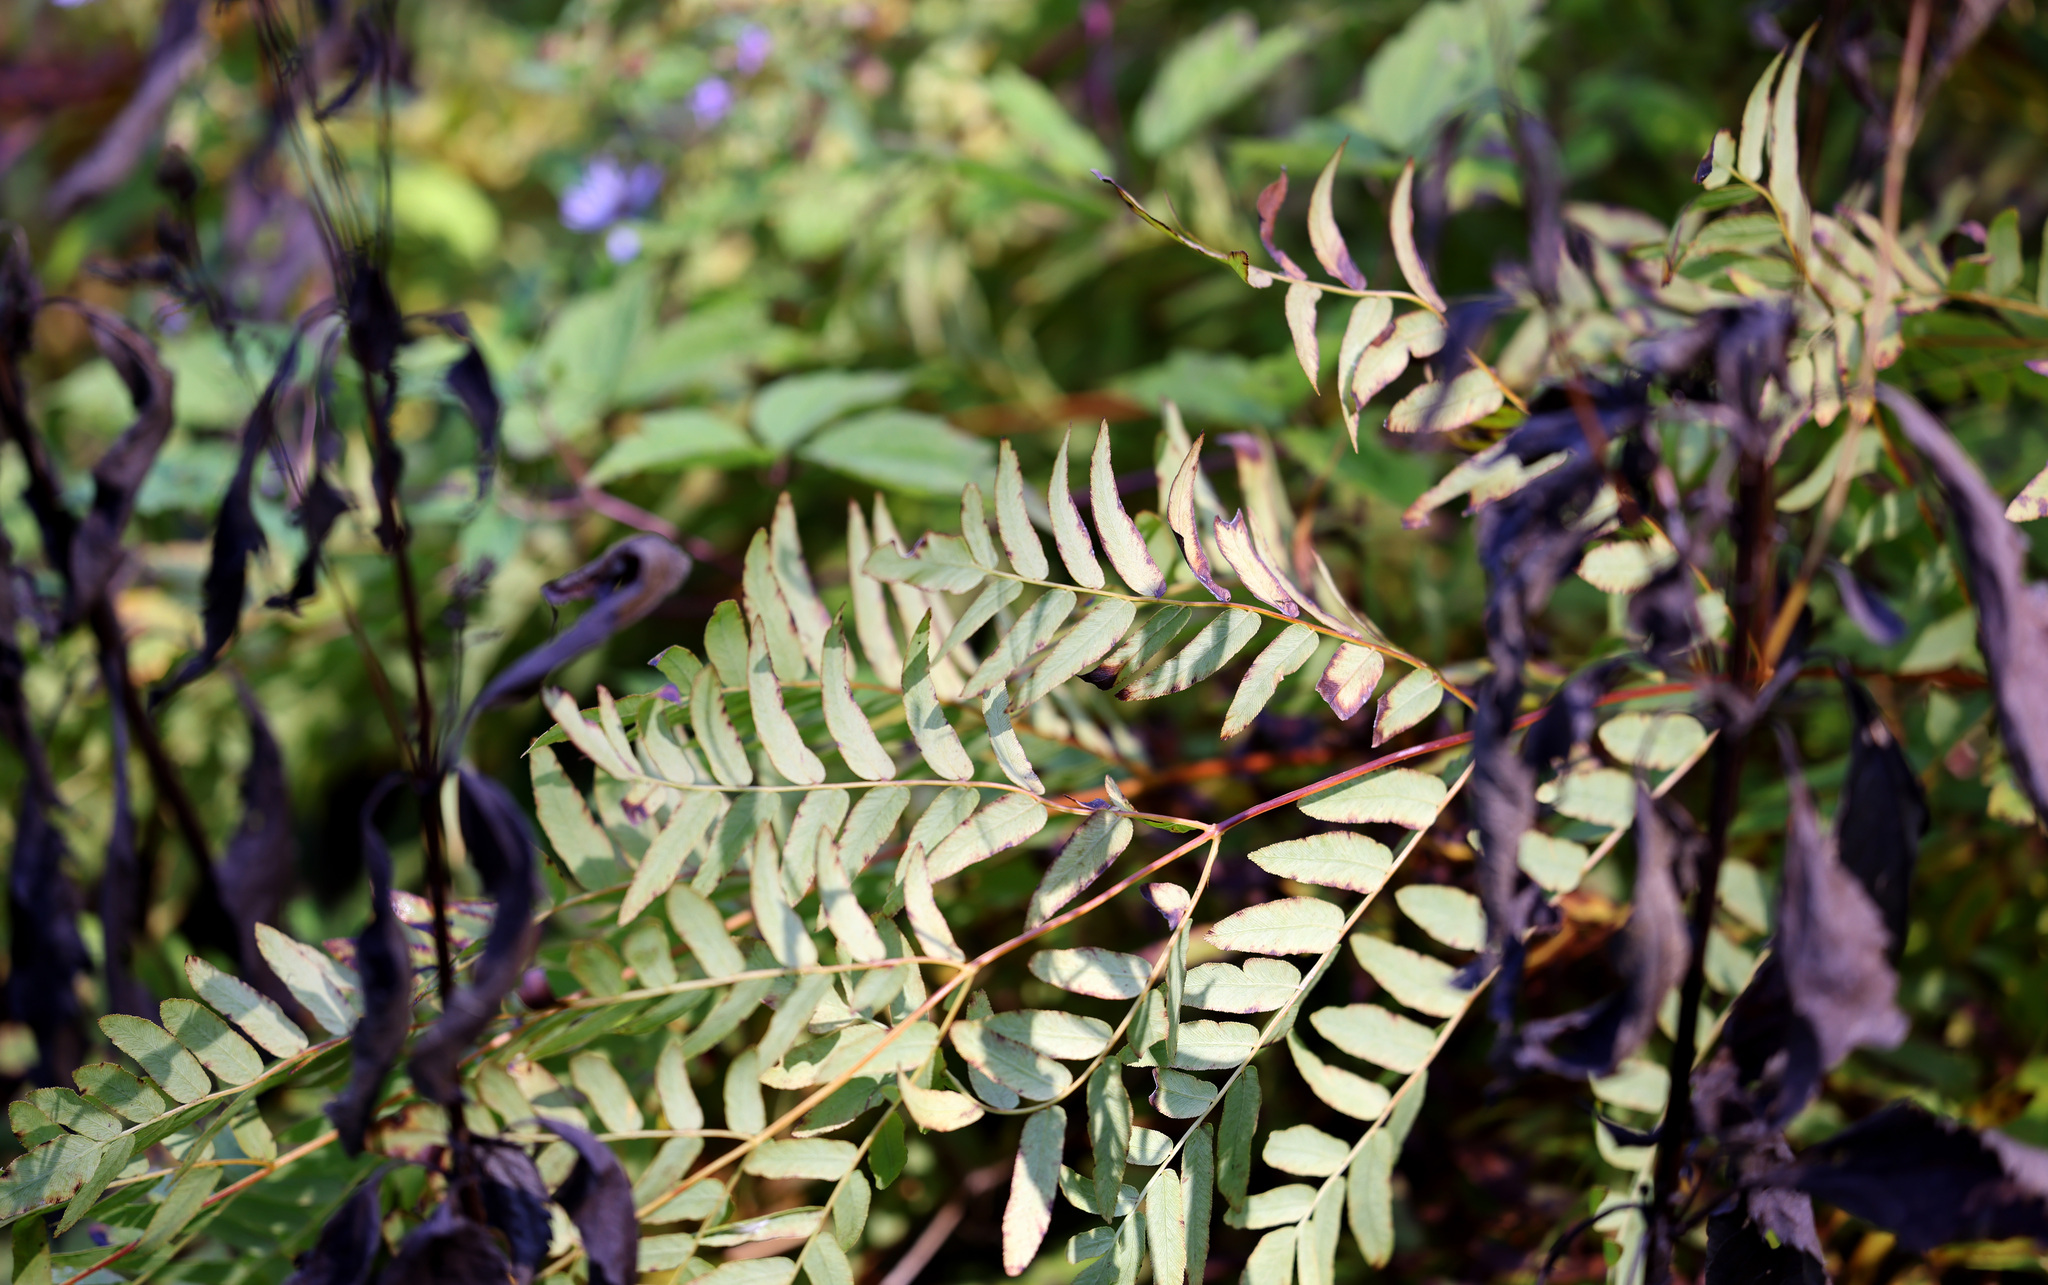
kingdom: Plantae
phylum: Tracheophyta
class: Polypodiopsida
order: Osmundales
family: Osmundaceae
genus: Osmunda
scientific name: Osmunda spectabilis
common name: American royal fern
